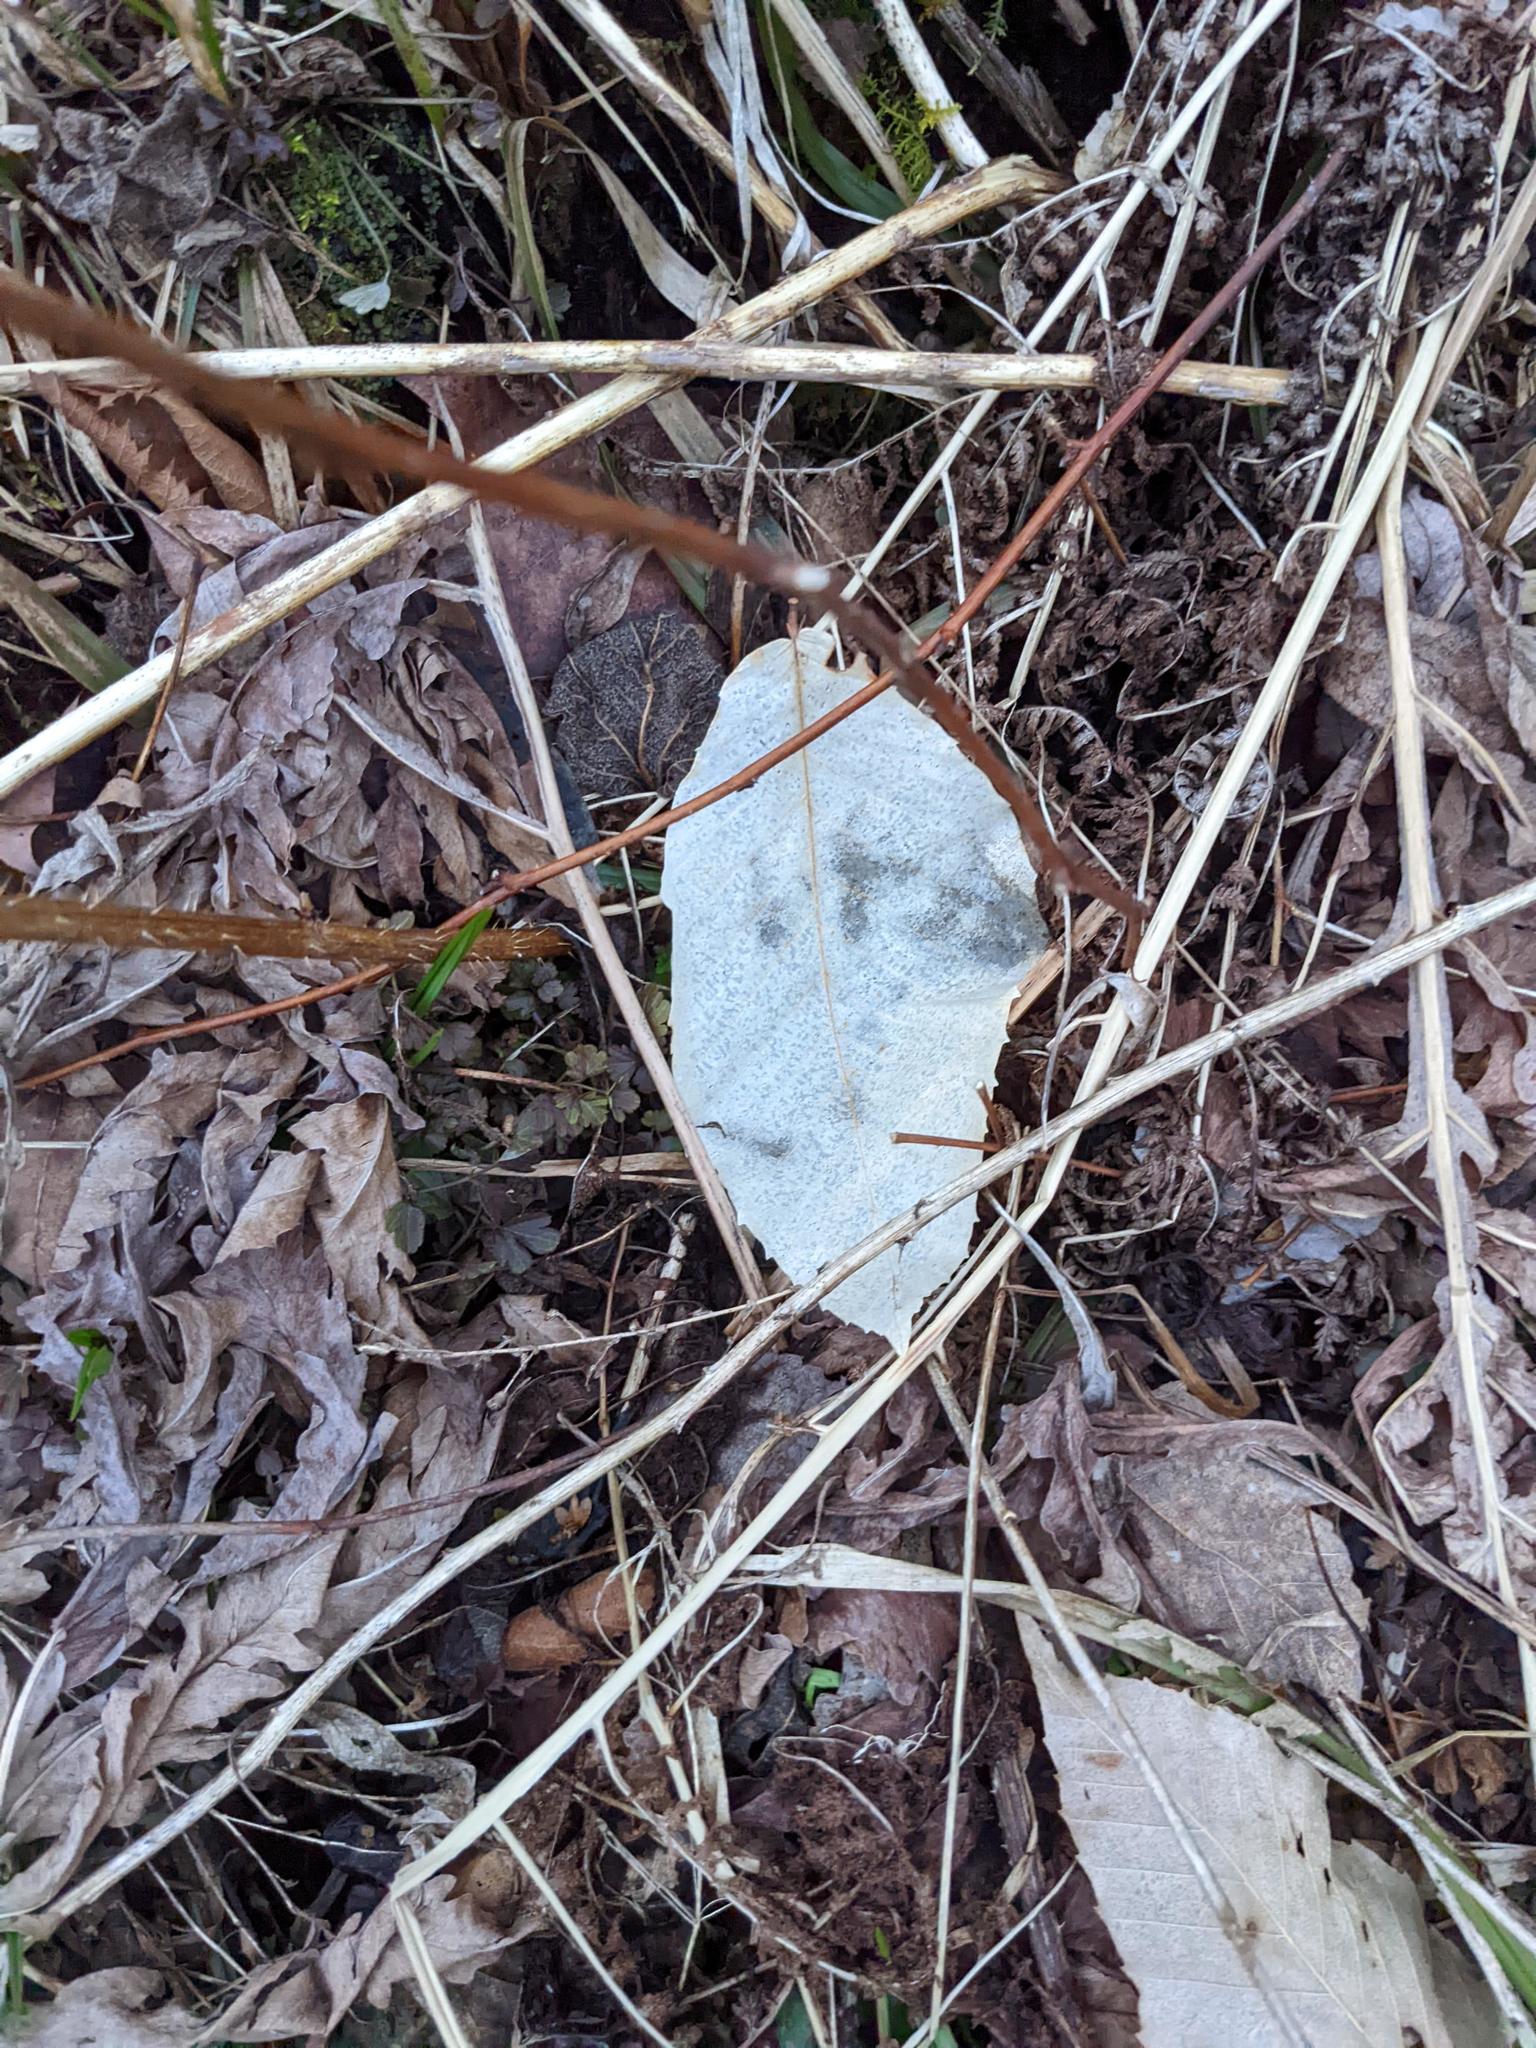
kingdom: Plantae
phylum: Tracheophyta
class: Magnoliopsida
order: Fagales
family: Fagaceae
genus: Fagus
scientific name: Fagus grandifolia
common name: American beech
